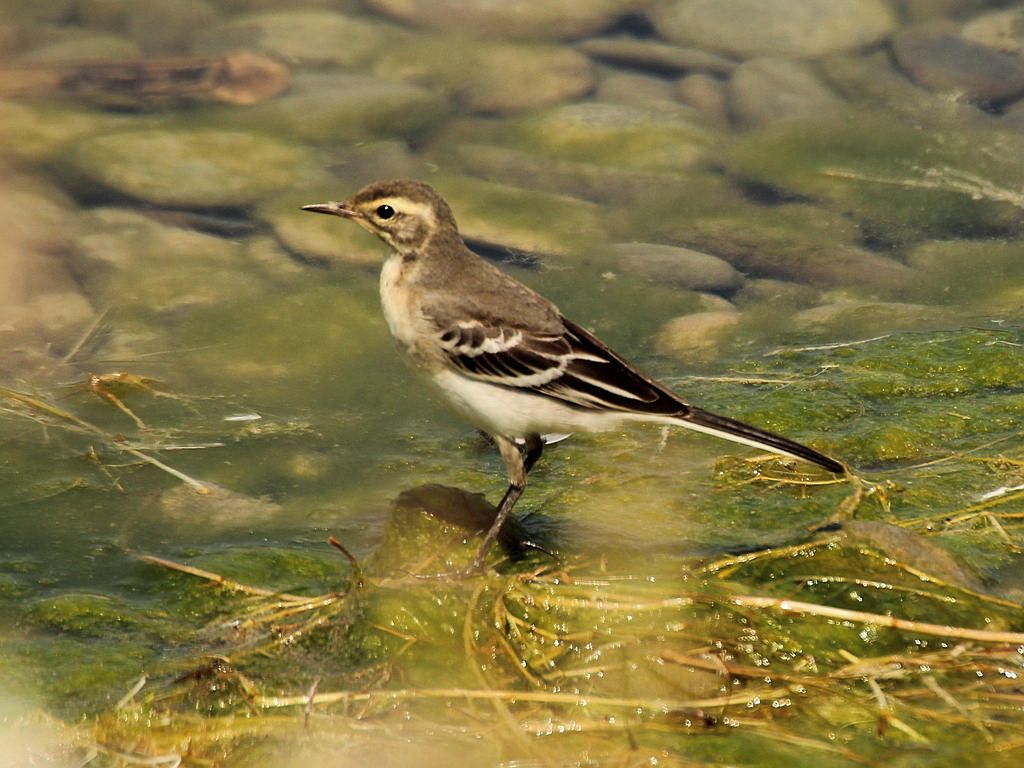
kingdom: Animalia
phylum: Chordata
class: Aves
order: Passeriformes
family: Motacillidae
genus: Motacilla
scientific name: Motacilla citreola
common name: Citrine wagtail
